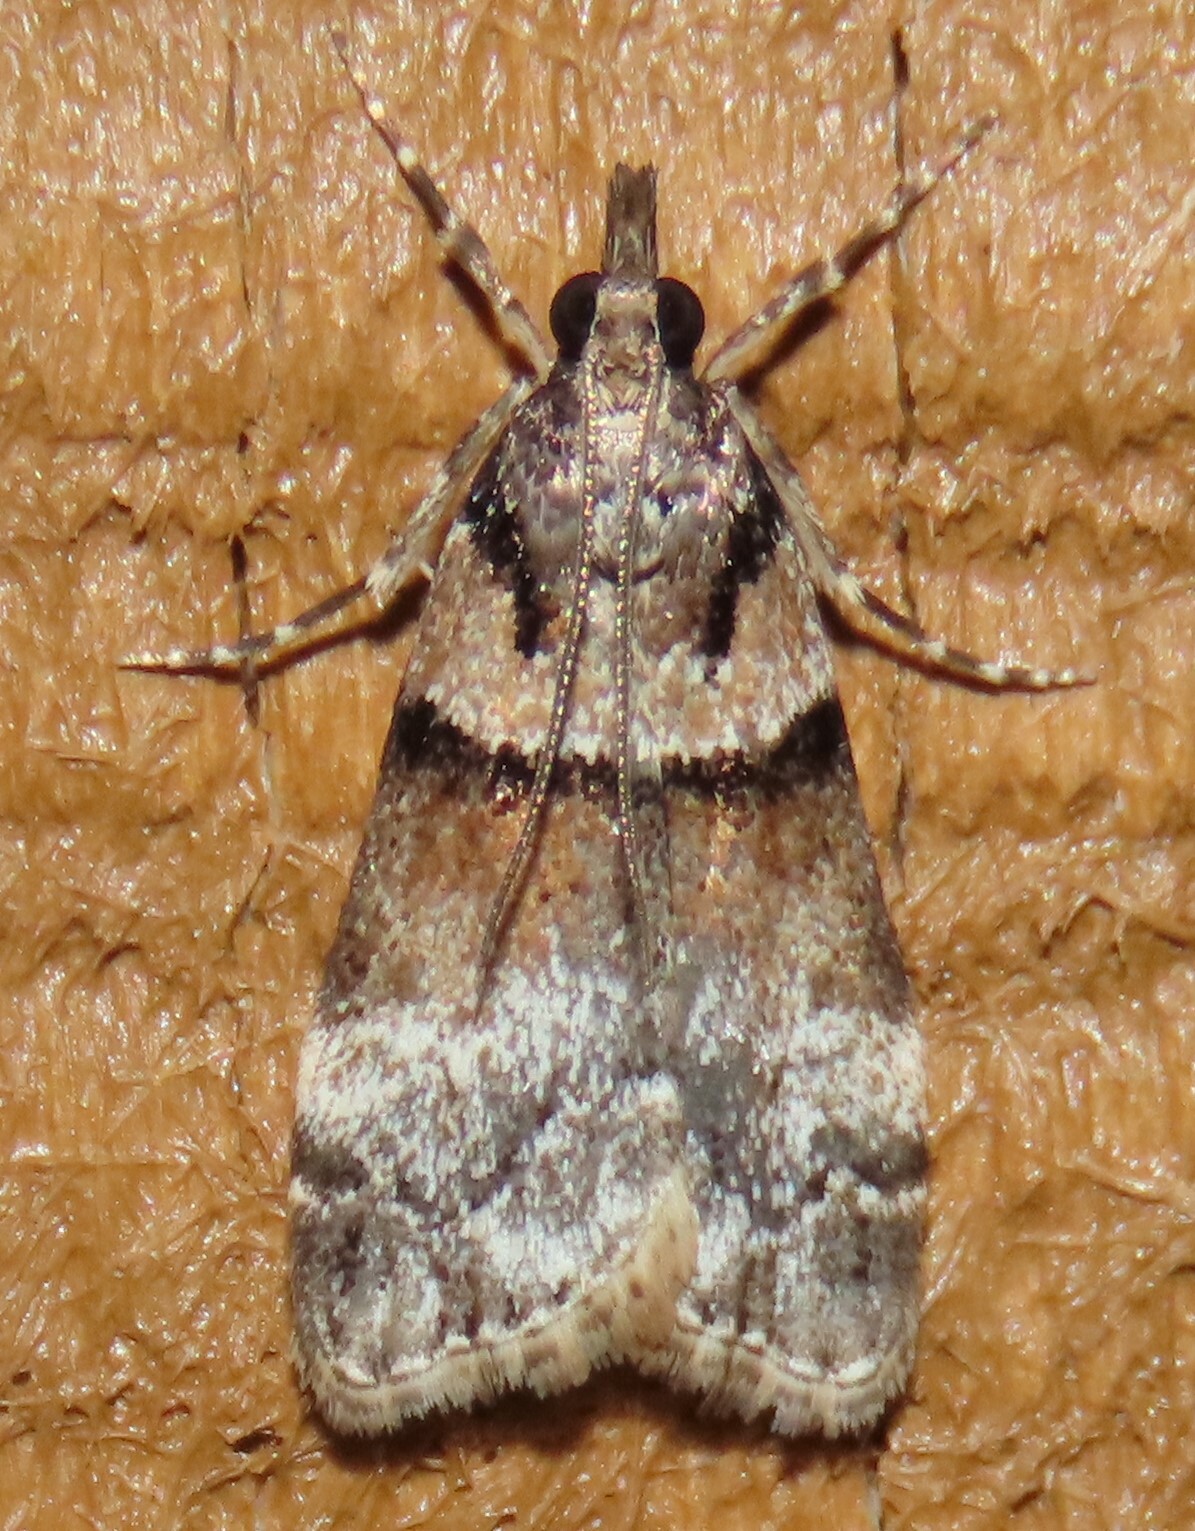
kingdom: Animalia
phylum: Arthropoda
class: Insecta
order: Lepidoptera
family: Crambidae
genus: Eudonia
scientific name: Eudonia colpota
